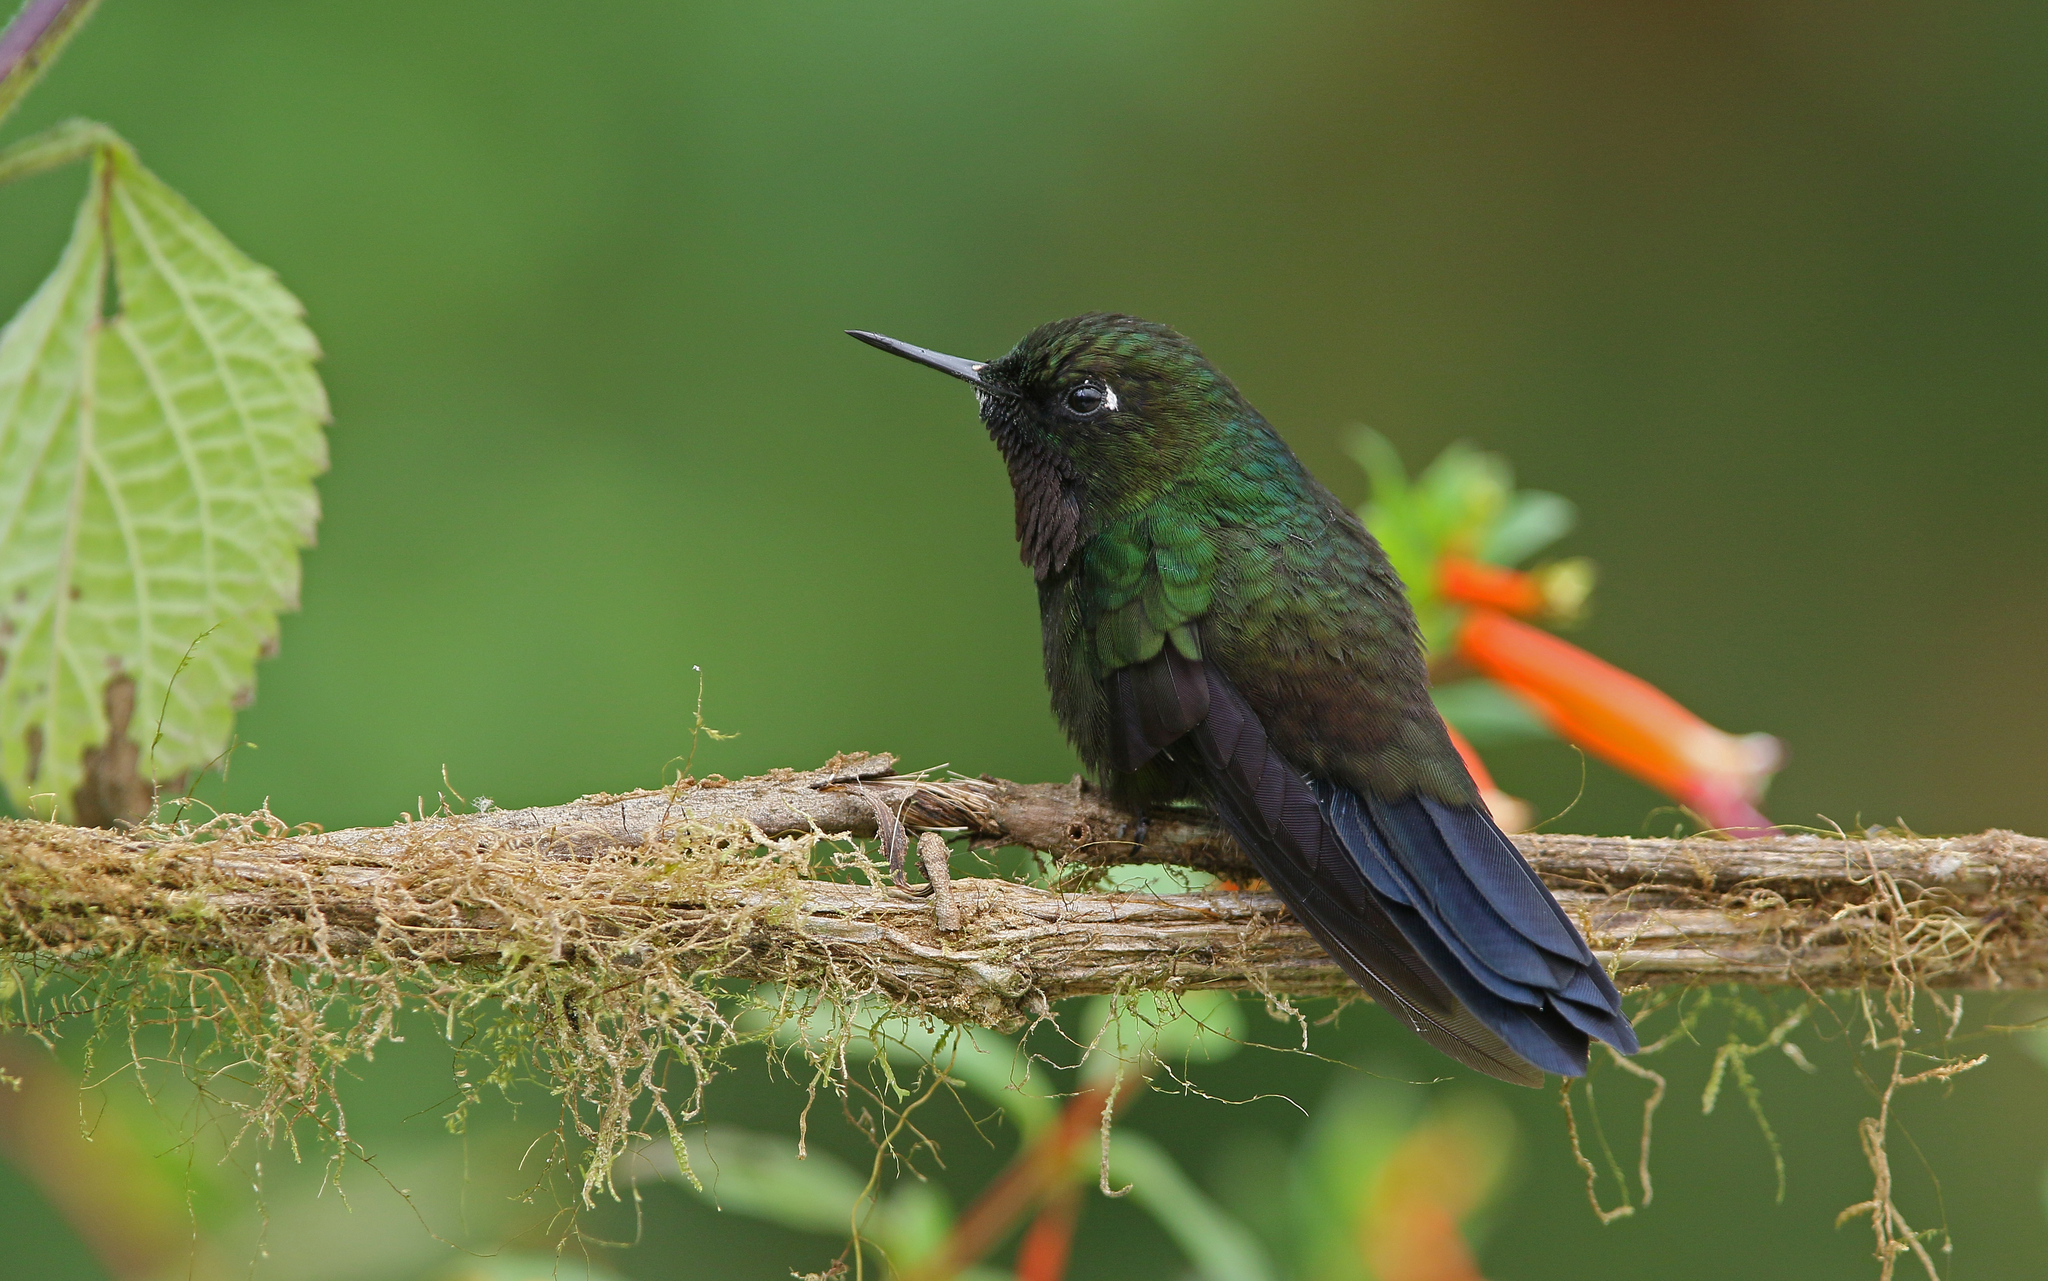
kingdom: Animalia
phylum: Chordata
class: Aves
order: Apodiformes
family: Trochilidae
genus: Heliangelus
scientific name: Heliangelus strophianus
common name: Gorgeted sunangel
